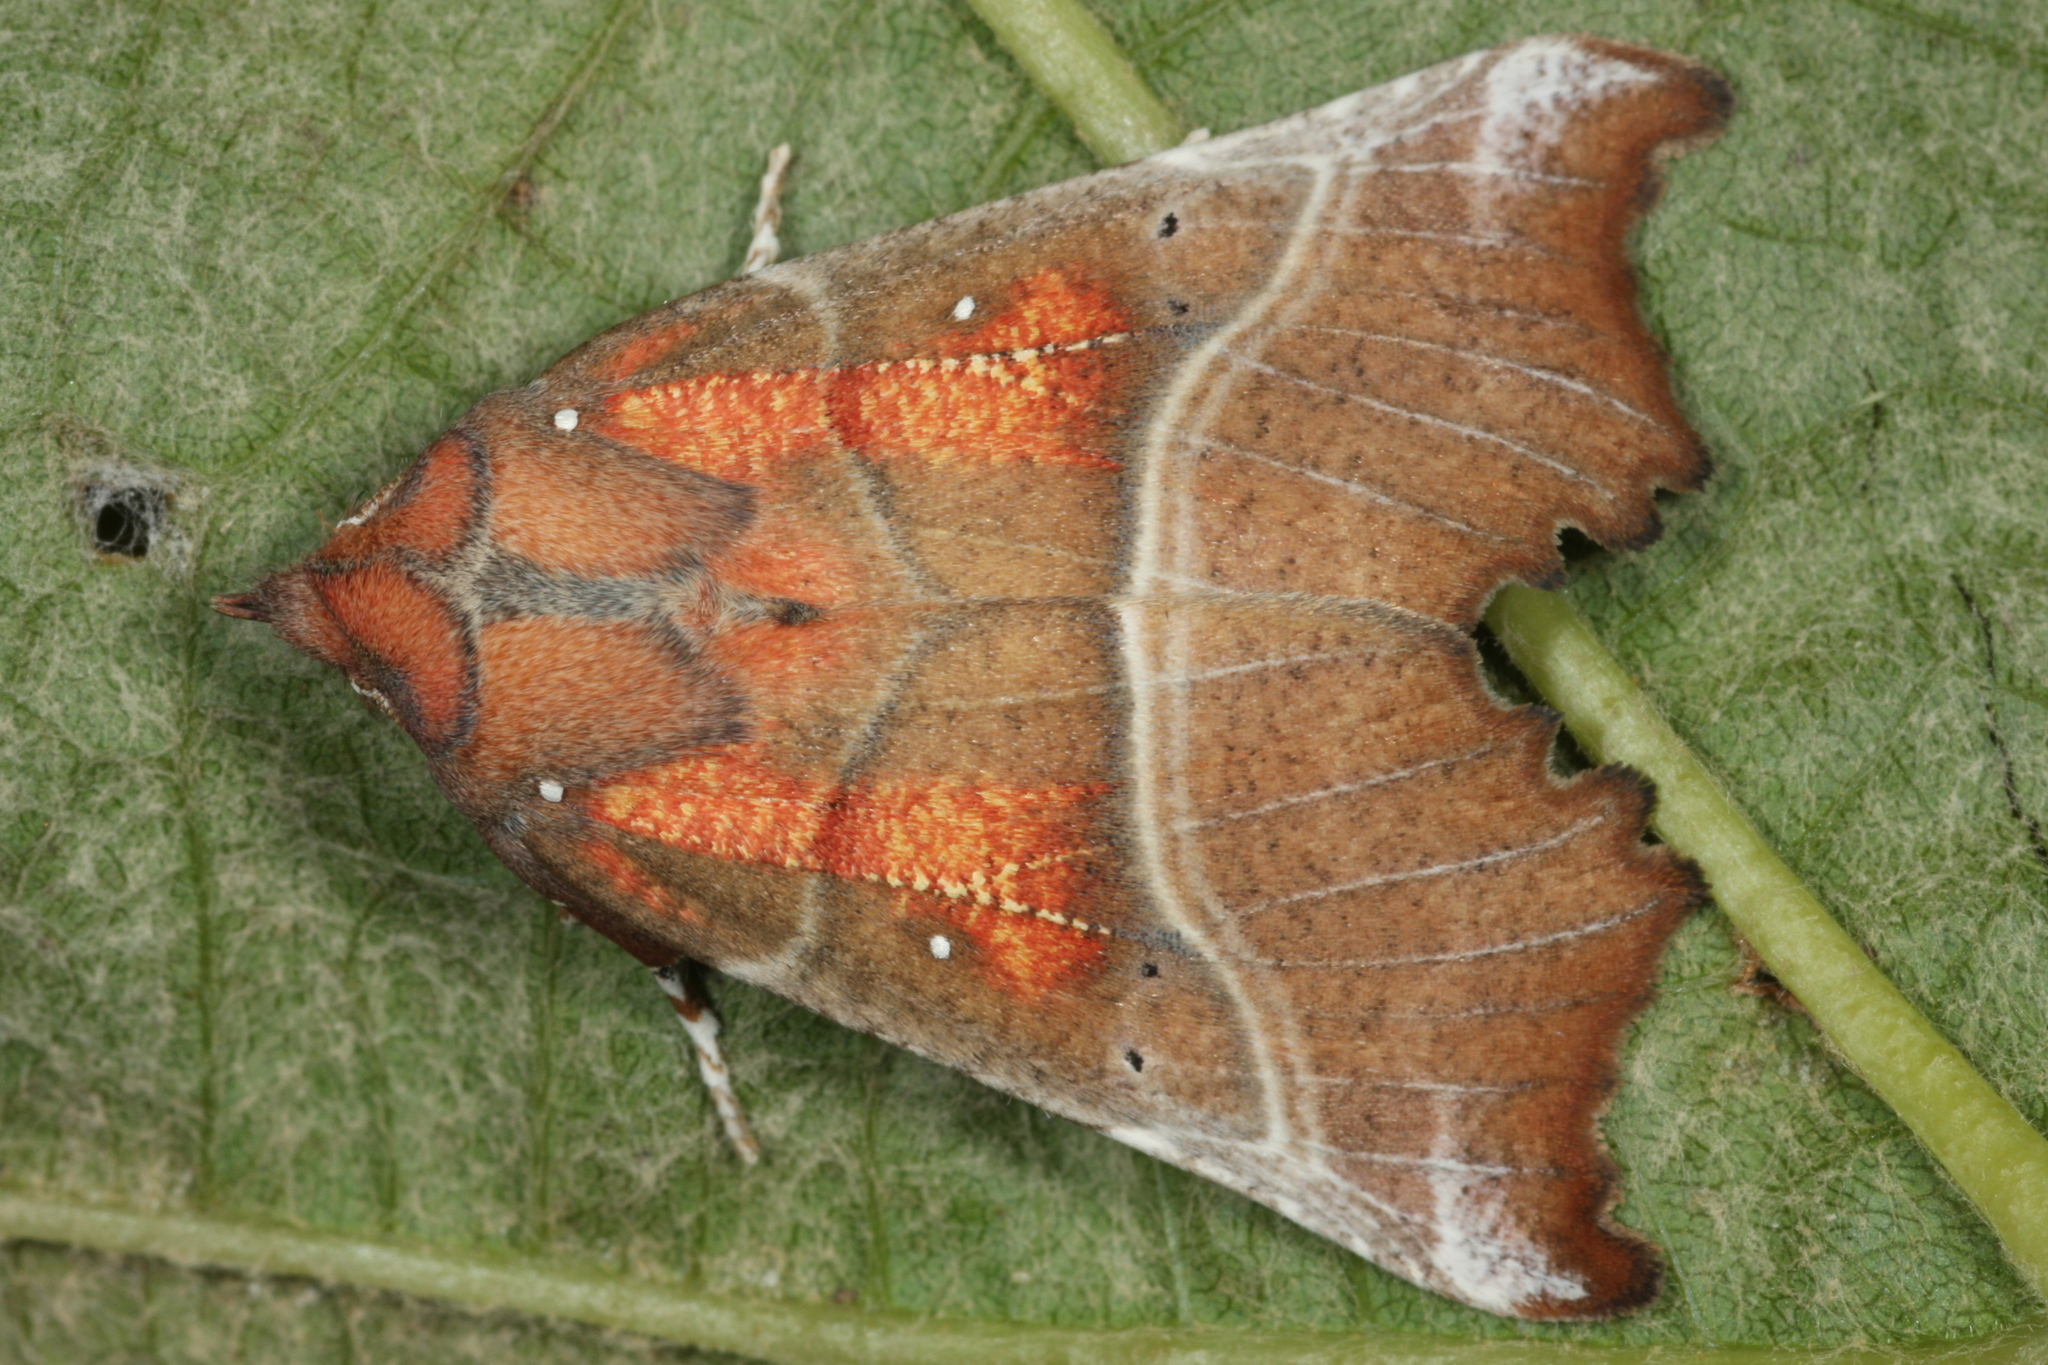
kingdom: Animalia
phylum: Arthropoda
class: Insecta
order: Lepidoptera
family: Erebidae
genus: Scoliopteryx
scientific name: Scoliopteryx libatrix
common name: Herald
